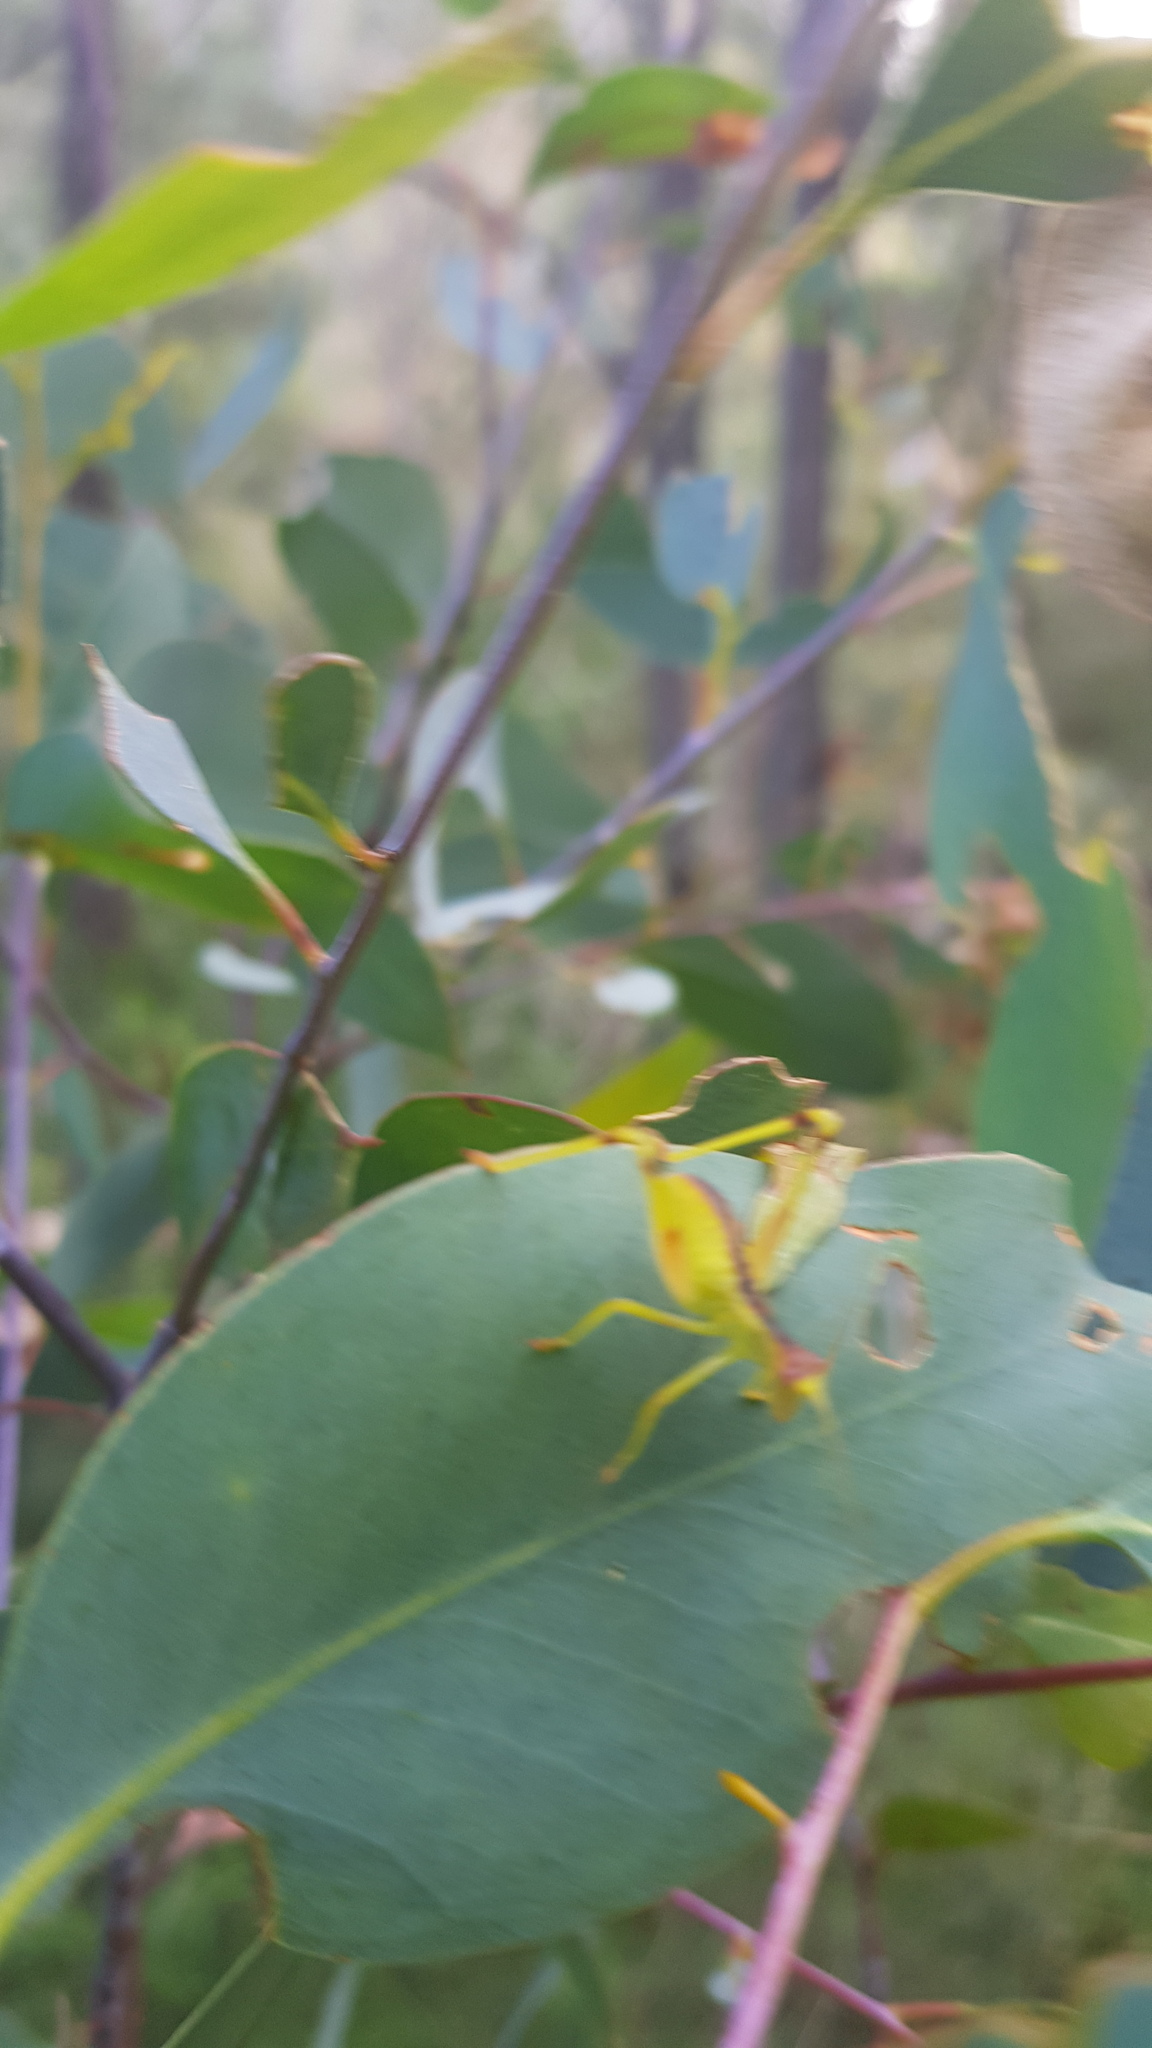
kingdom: Animalia
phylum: Arthropoda
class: Insecta
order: Orthoptera
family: Tettigoniidae
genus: Torbia
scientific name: Torbia perficita
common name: Giant torbia
